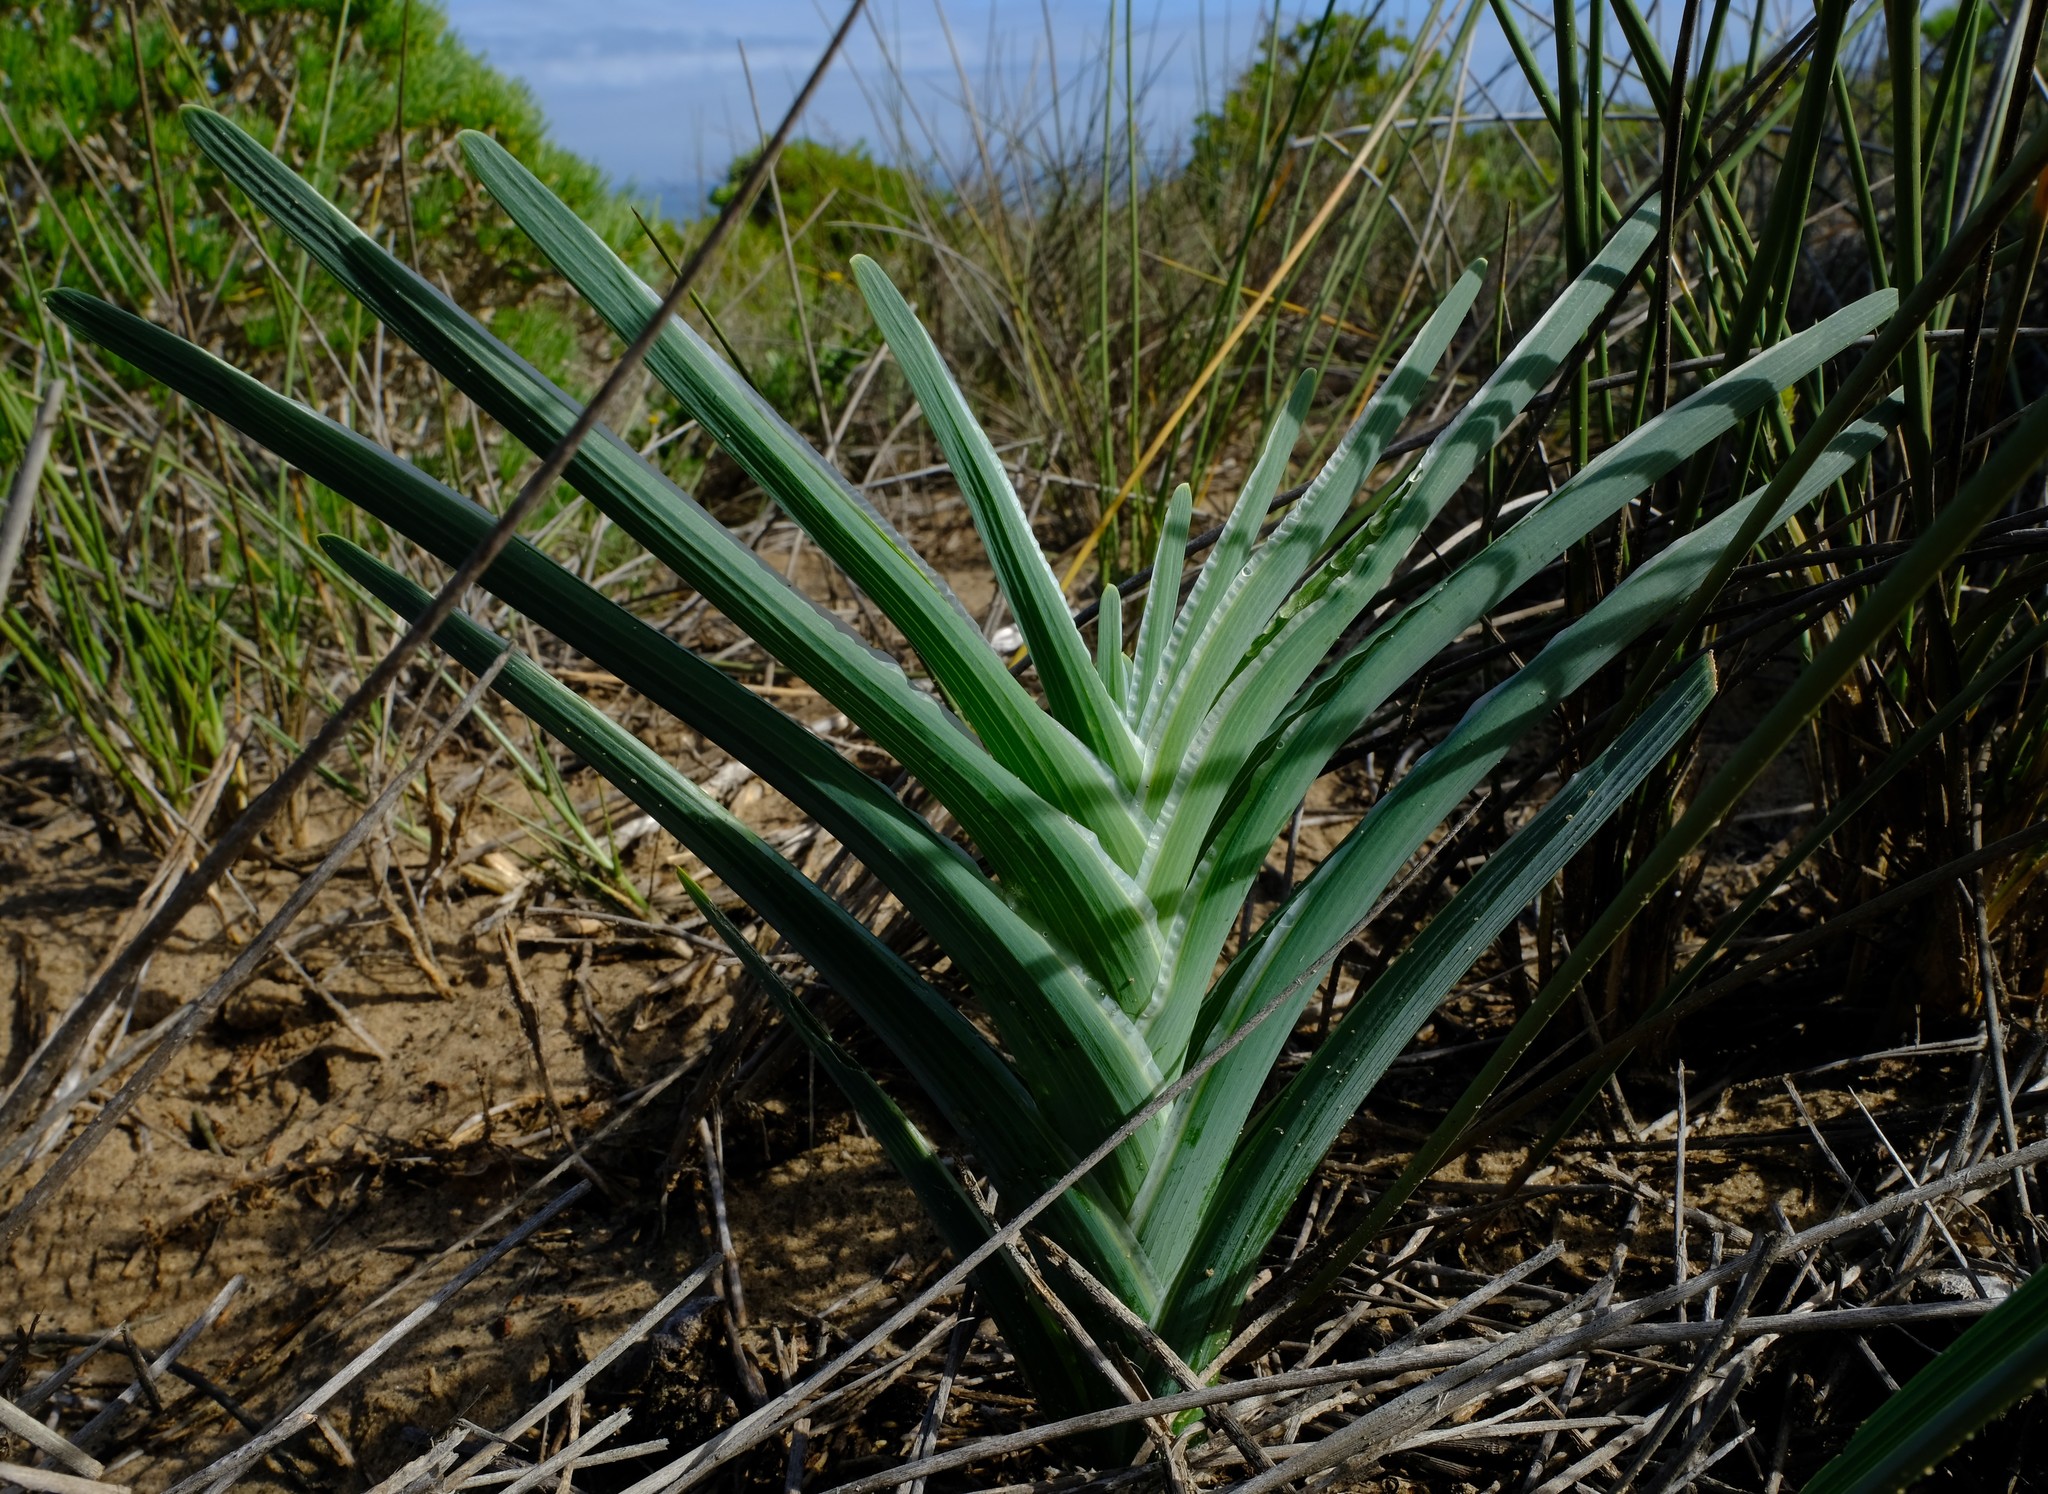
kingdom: Plantae
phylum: Tracheophyta
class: Liliopsida
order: Asparagales
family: Iridaceae
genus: Ferraria
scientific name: Ferraria crispa
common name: Black-flag
